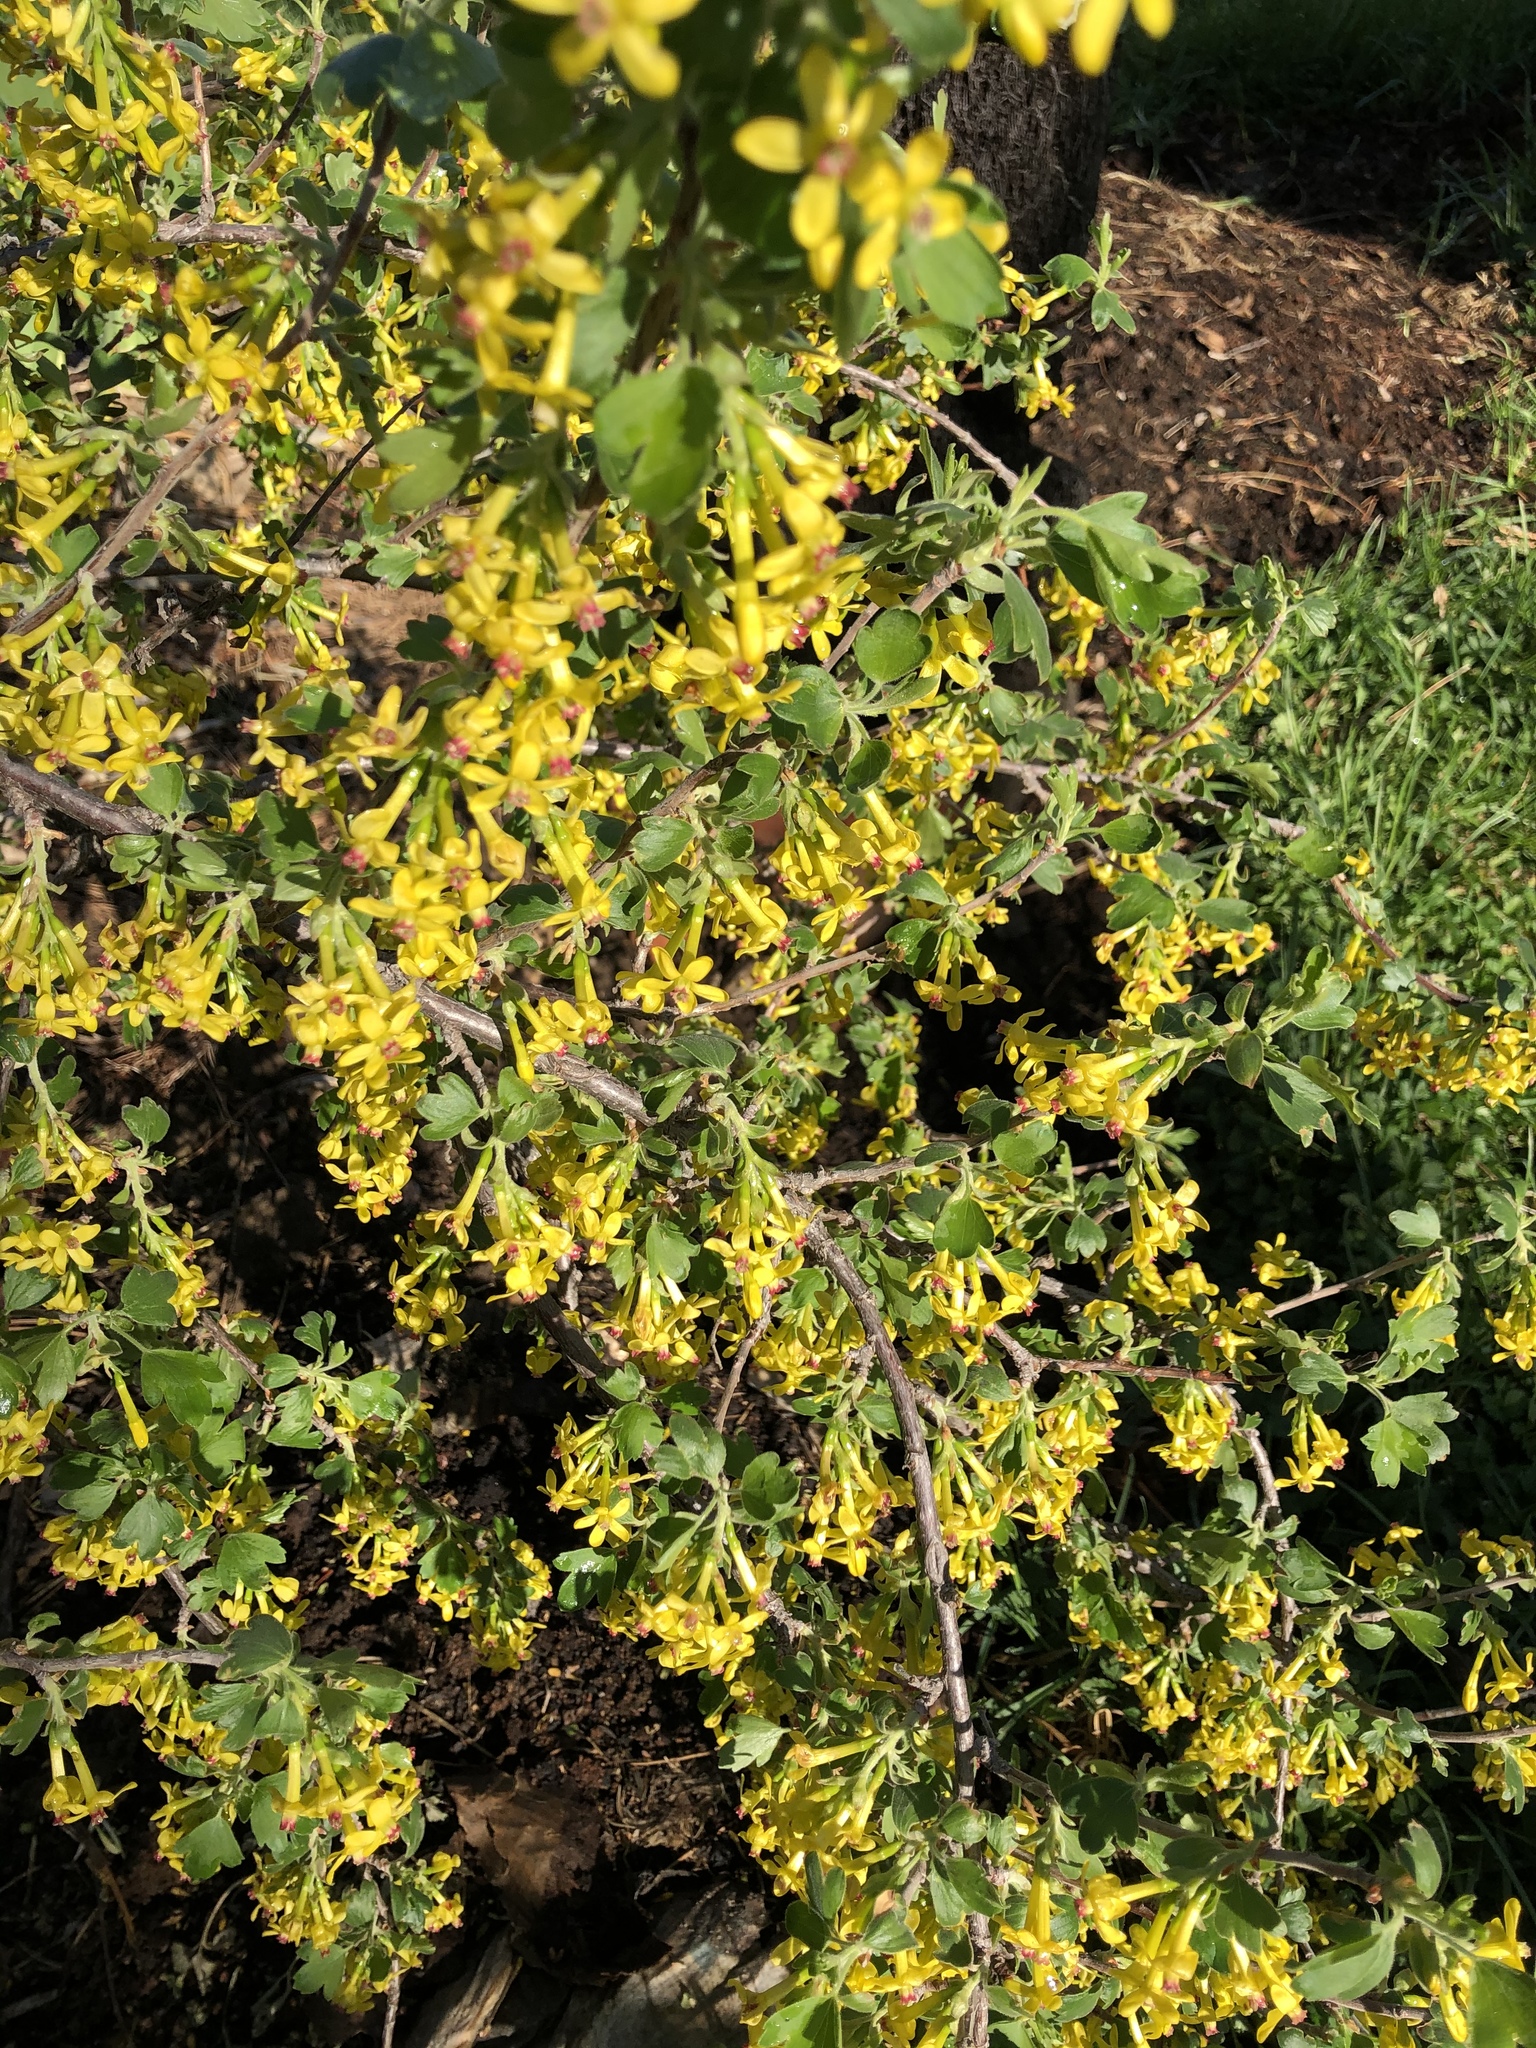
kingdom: Plantae
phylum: Tracheophyta
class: Magnoliopsida
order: Saxifragales
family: Grossulariaceae
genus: Ribes
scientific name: Ribes aureum
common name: Golden currant
